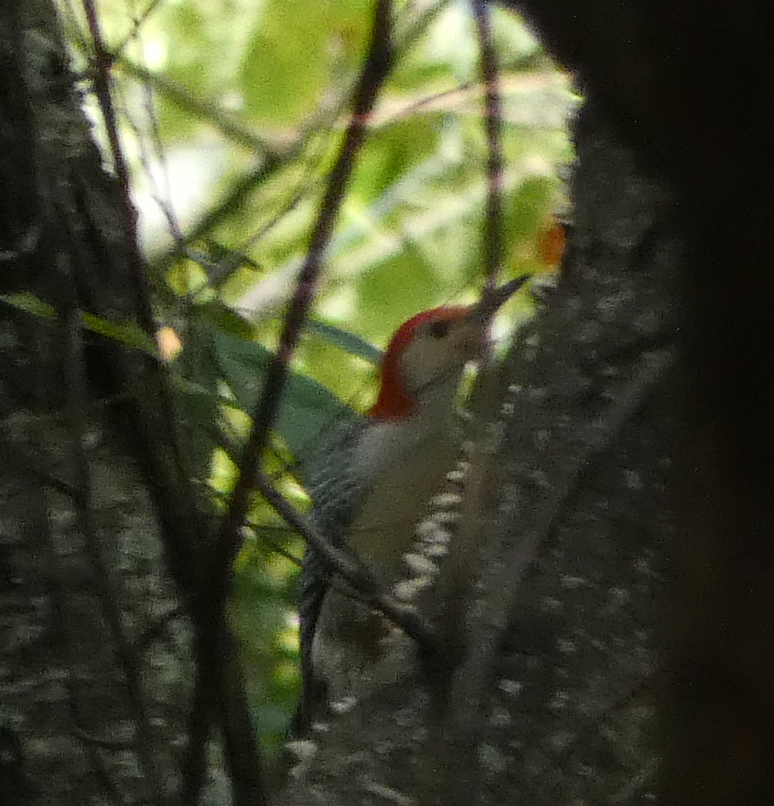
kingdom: Animalia
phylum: Chordata
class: Aves
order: Piciformes
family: Picidae
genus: Melanerpes
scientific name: Melanerpes carolinus
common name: Red-bellied woodpecker
